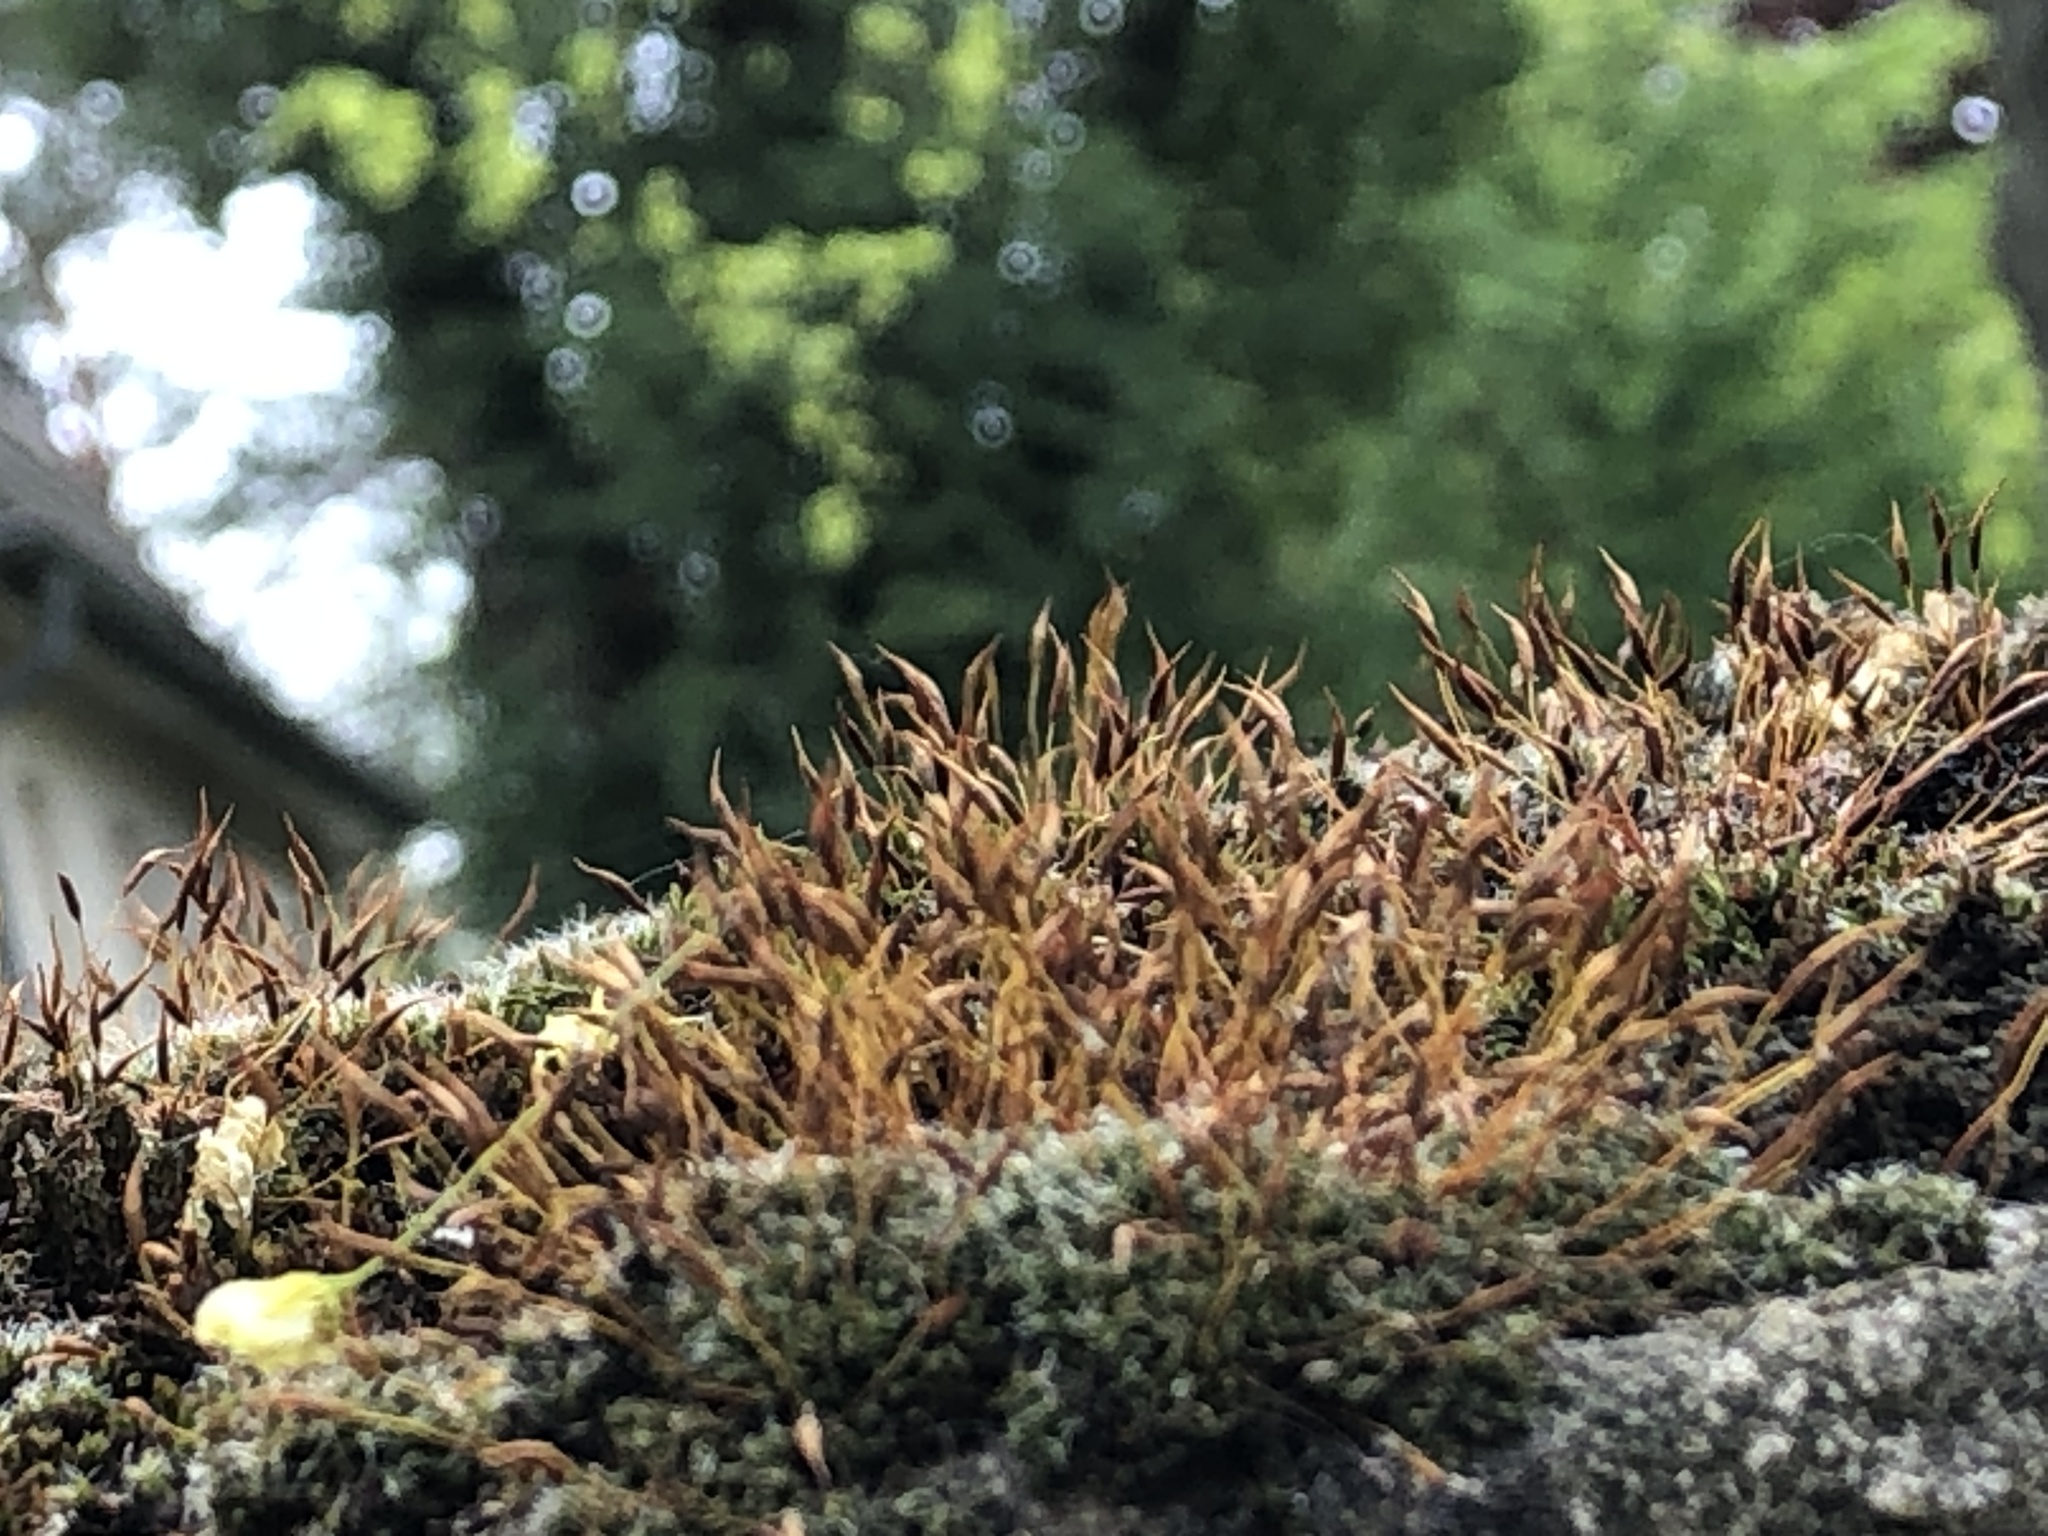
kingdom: Plantae
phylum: Bryophyta
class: Bryopsida
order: Pottiales
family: Pottiaceae
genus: Tortula
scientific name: Tortula muralis
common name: Wall screw-moss
